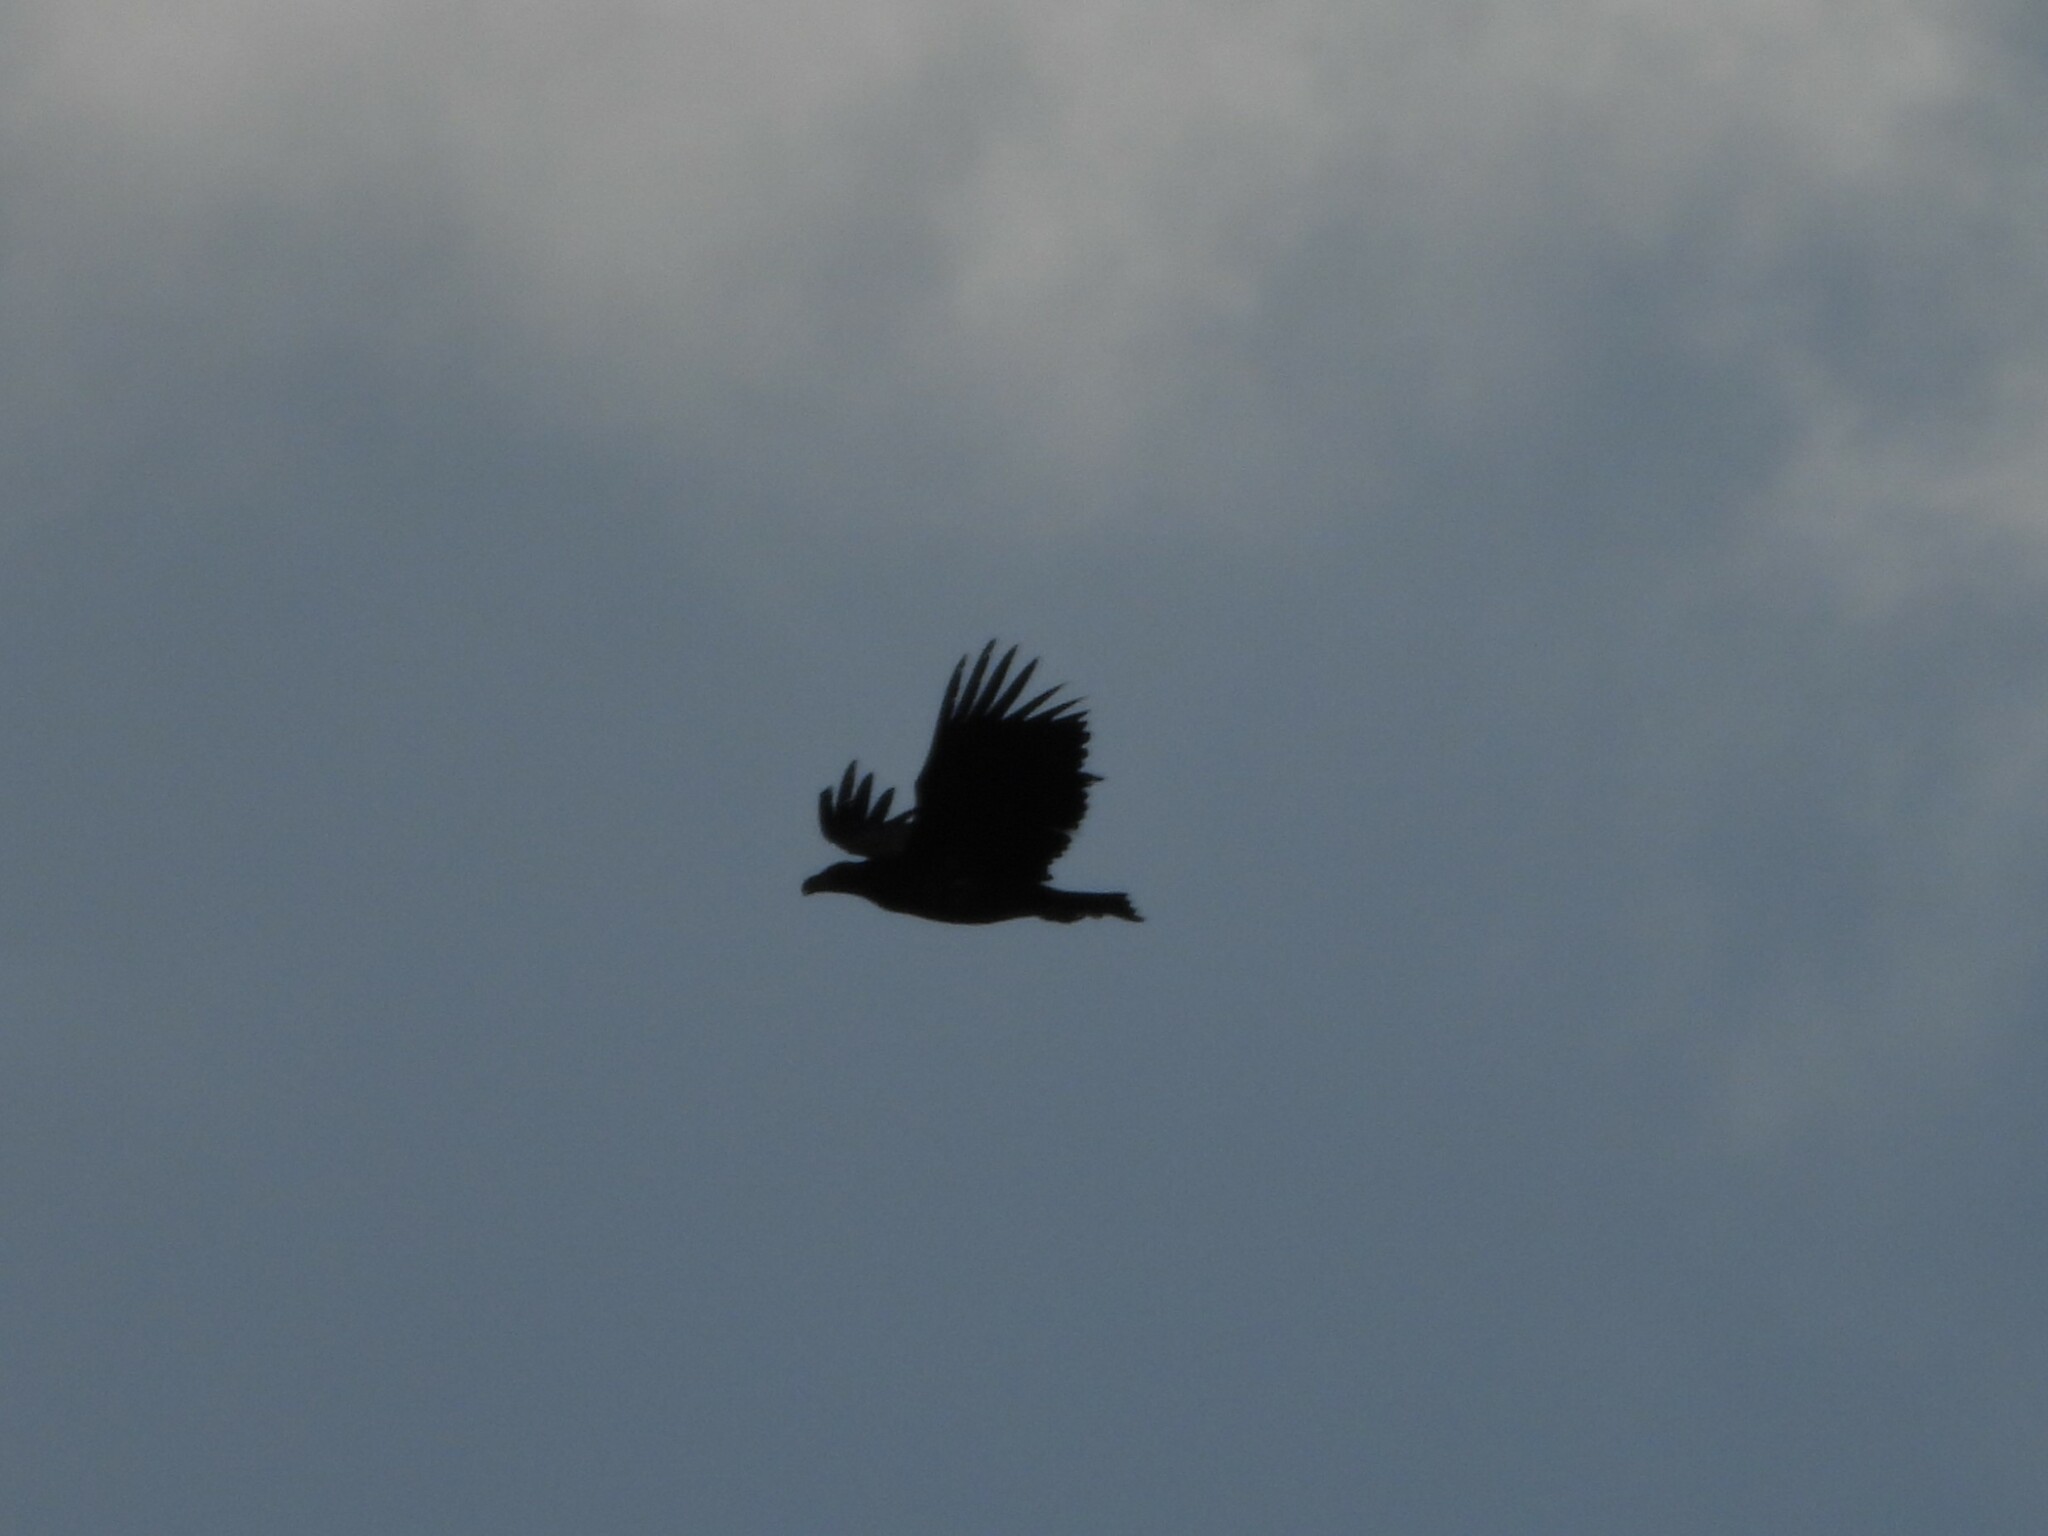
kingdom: Animalia
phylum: Chordata
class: Aves
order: Accipitriformes
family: Accipitridae
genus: Haliaeetus
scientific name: Haliaeetus albicilla
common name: White-tailed eagle
